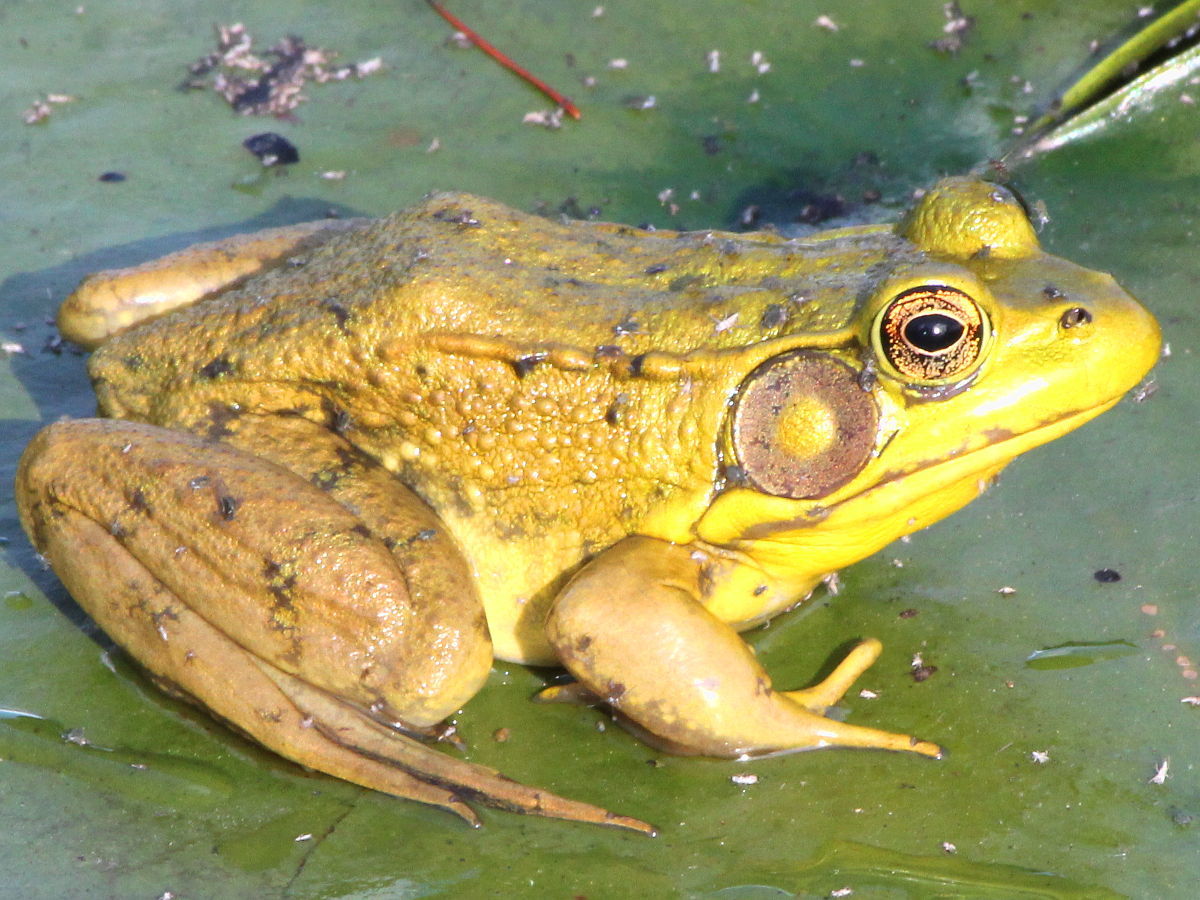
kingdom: Animalia
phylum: Chordata
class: Amphibia
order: Anura
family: Ranidae
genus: Lithobates
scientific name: Lithobates clamitans
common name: Green frog
